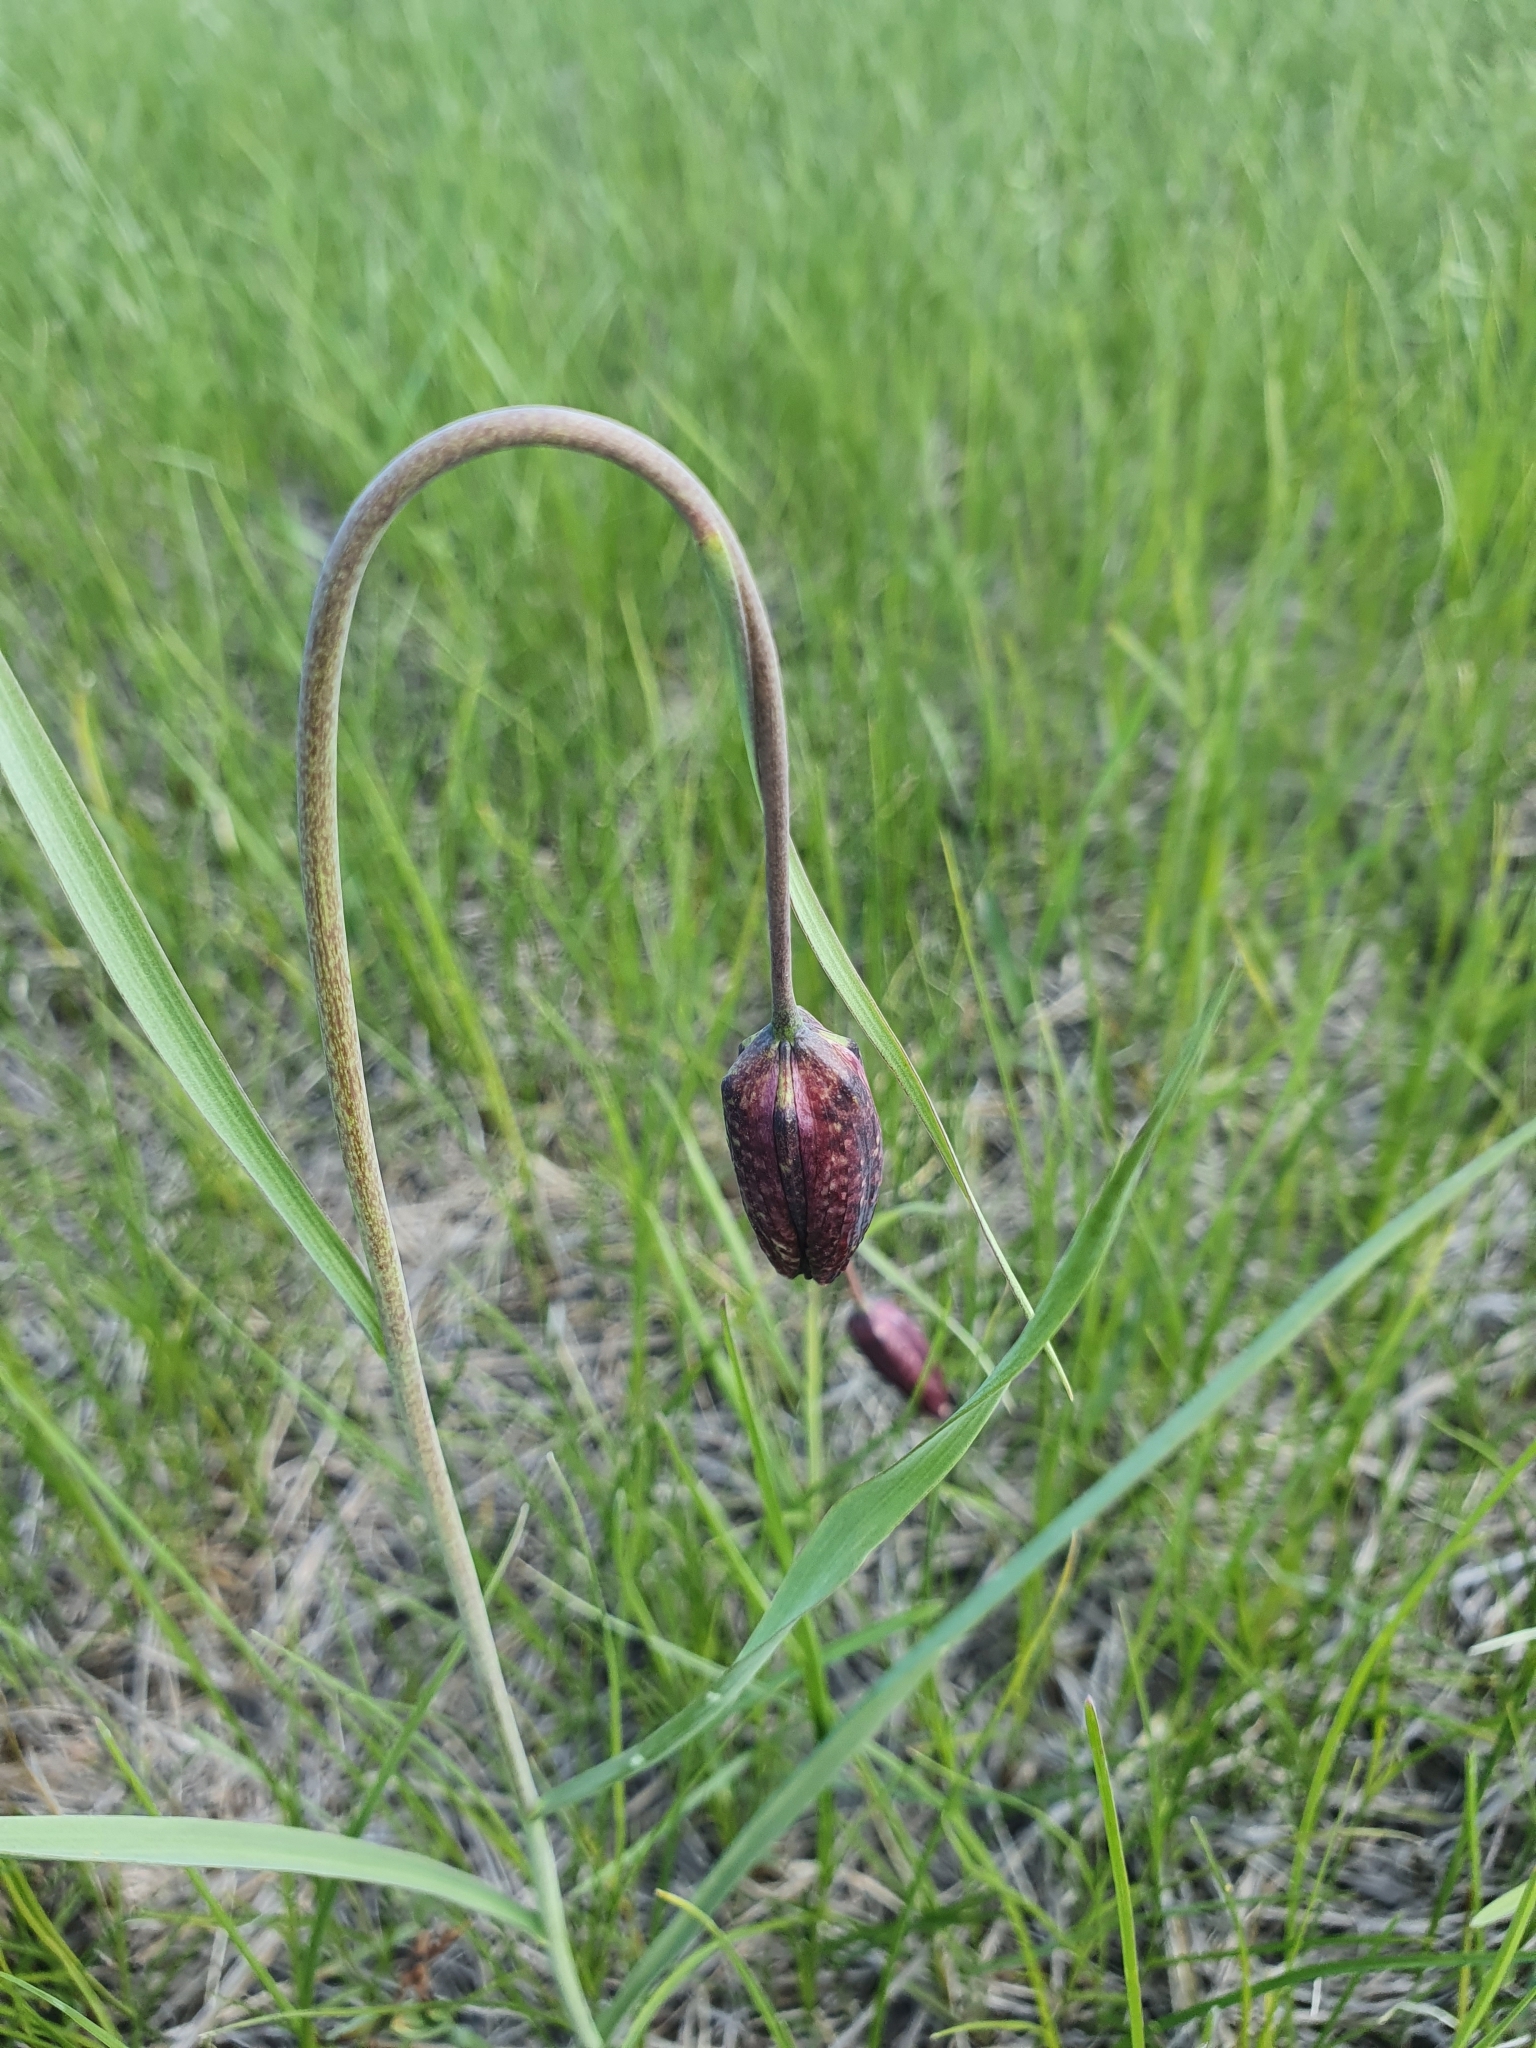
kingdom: Plantae
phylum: Tracheophyta
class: Liliopsida
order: Liliales
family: Liliaceae
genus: Fritillaria
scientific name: Fritillaria meleagroides
